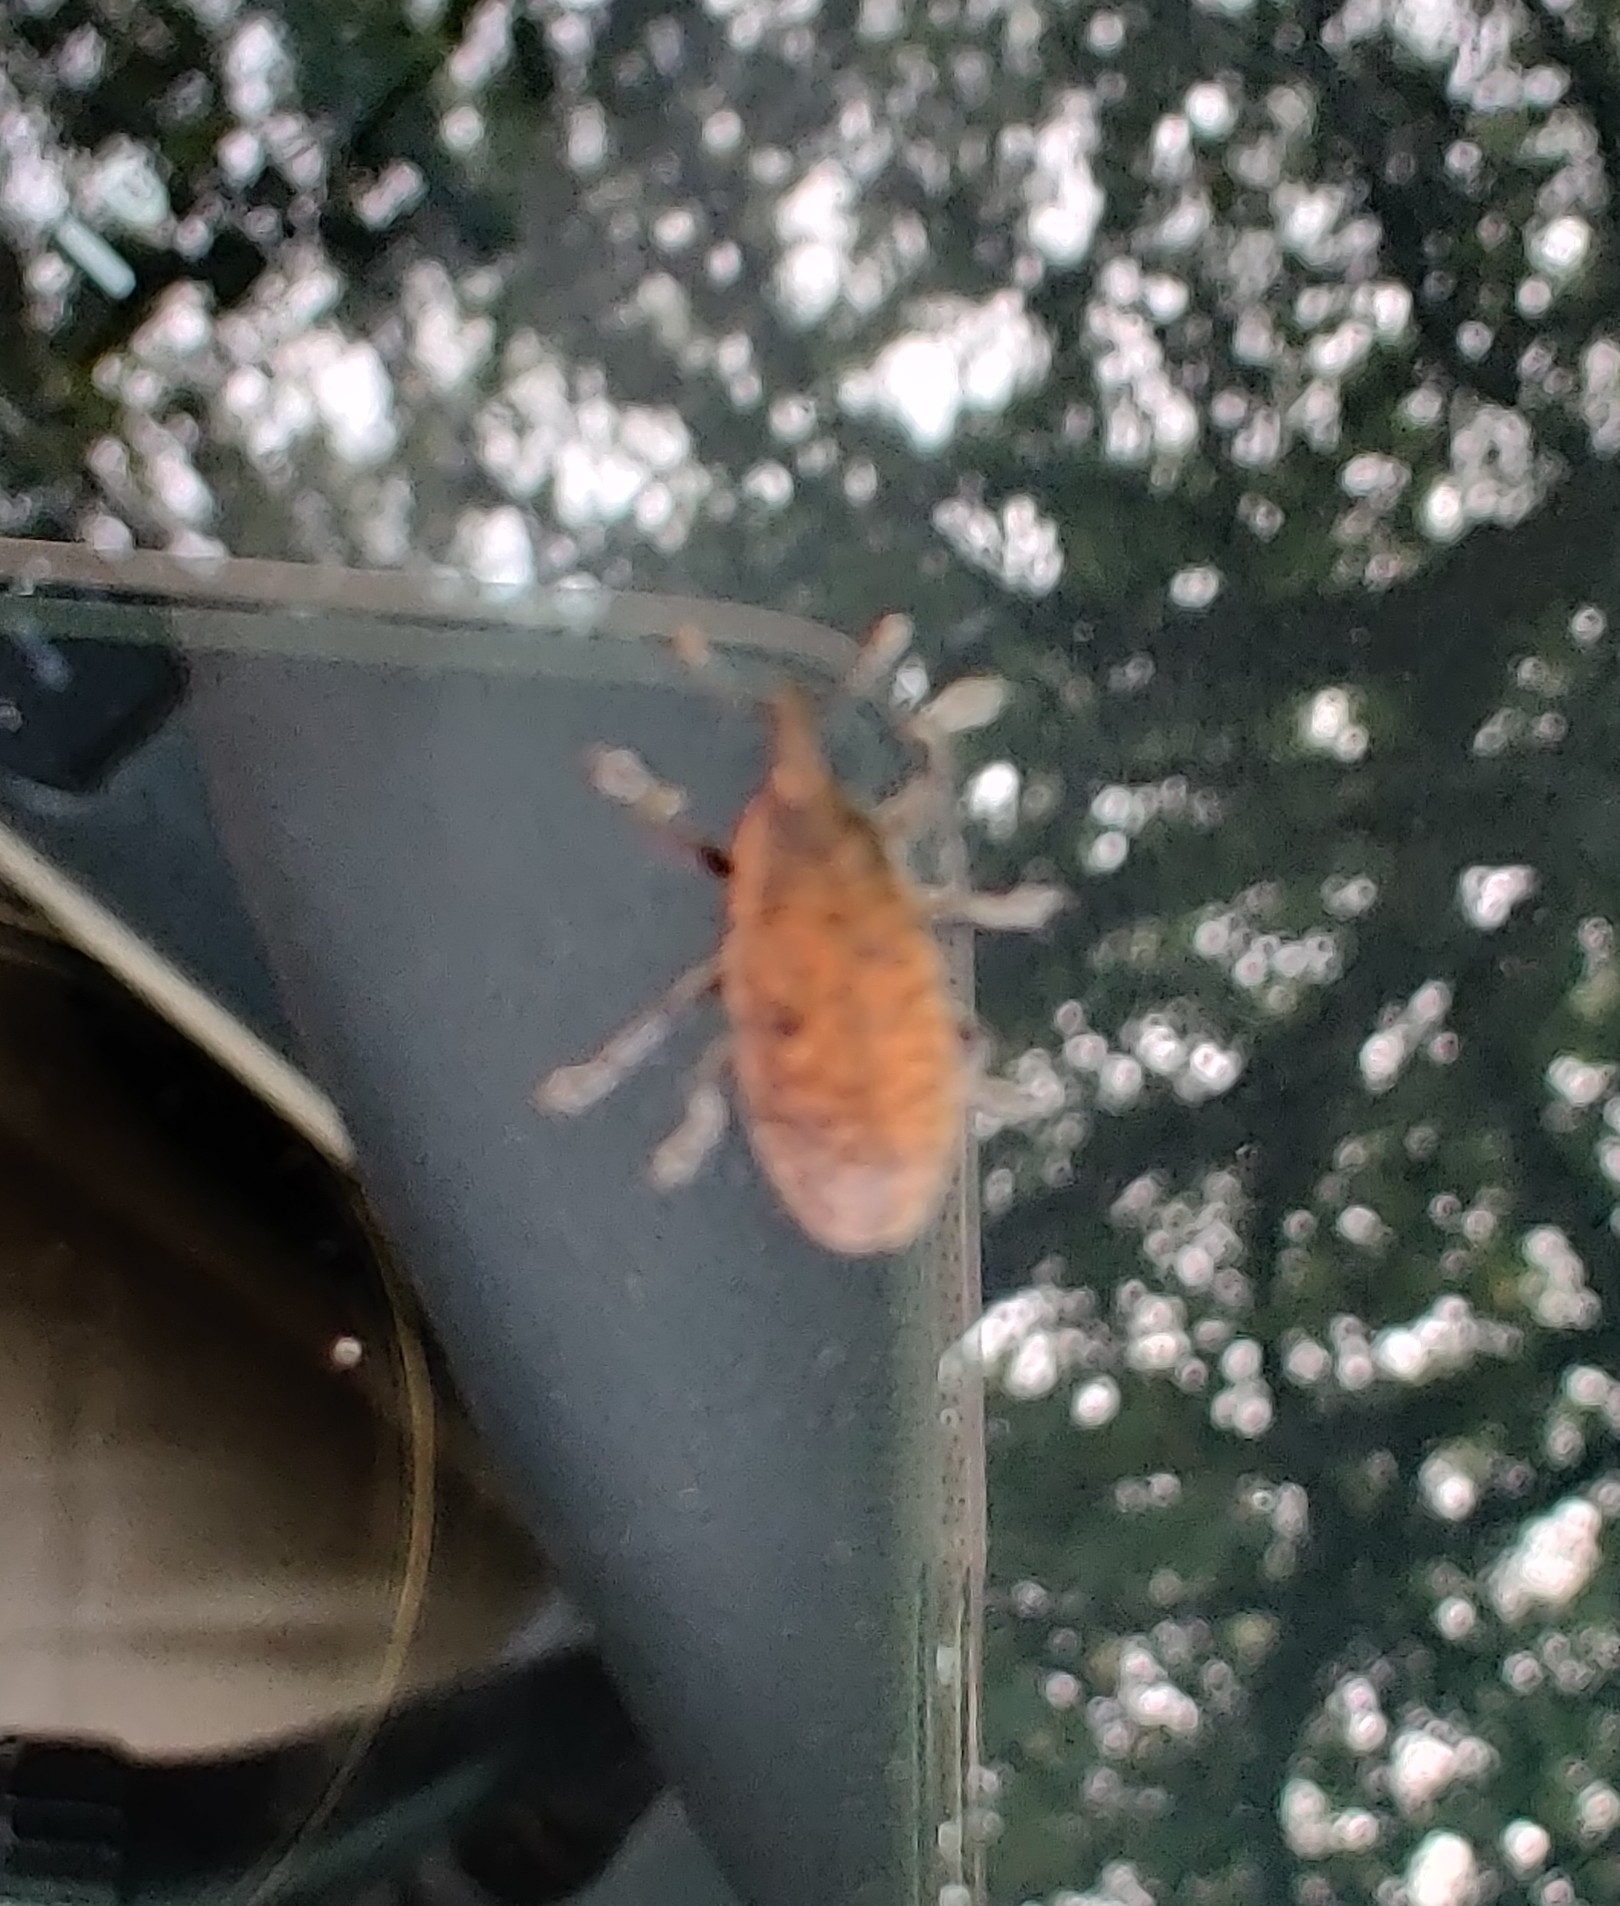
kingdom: Animalia
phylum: Arthropoda
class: Insecta
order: Coleoptera
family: Curculionidae
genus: Larinus
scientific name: Larinus carlinae
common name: Weevil
